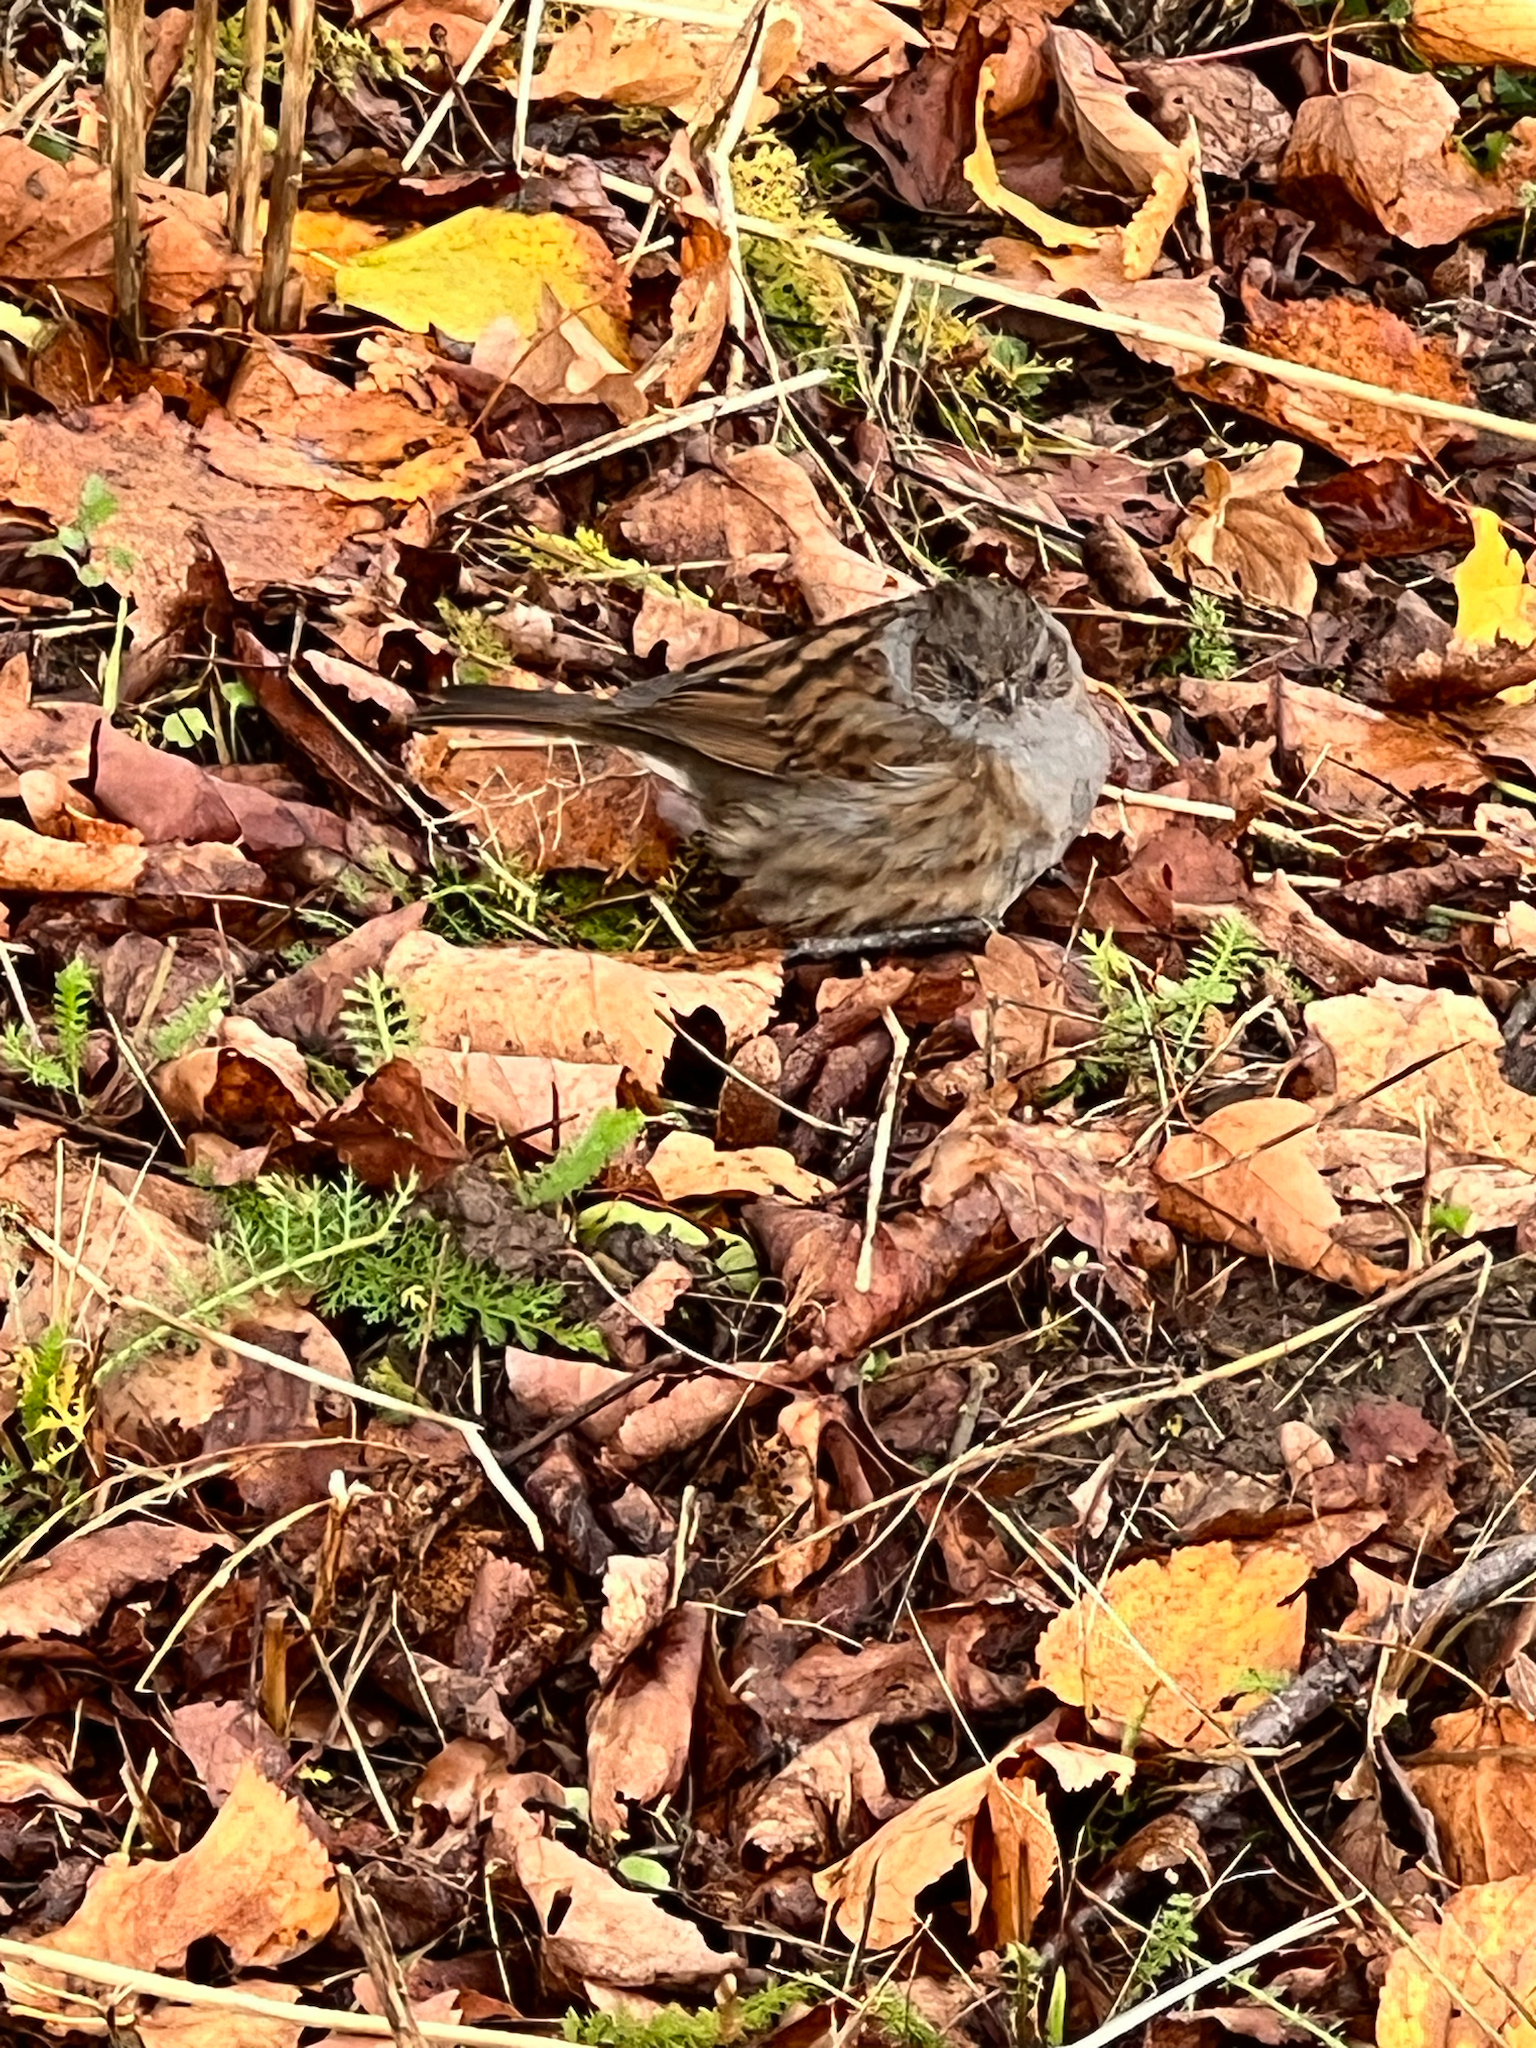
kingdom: Animalia
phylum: Chordata
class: Aves
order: Passeriformes
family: Prunellidae
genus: Prunella
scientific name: Prunella modularis
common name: Dunnock
